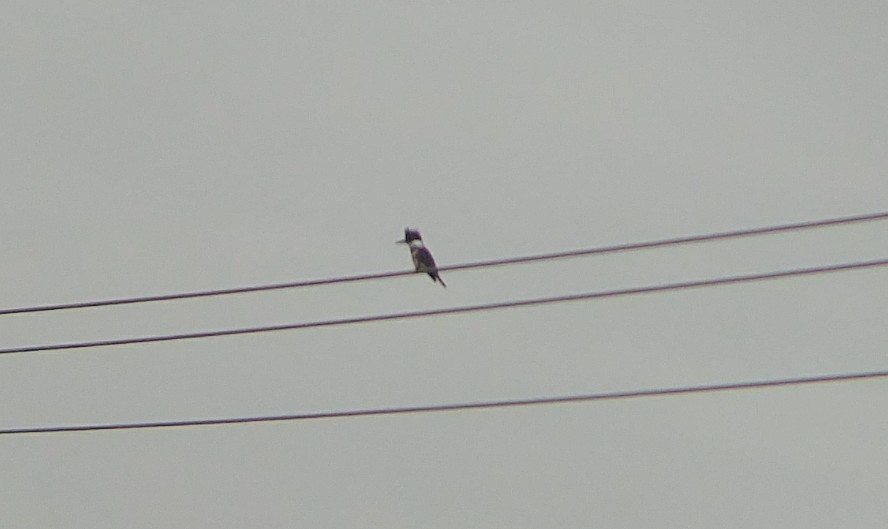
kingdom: Animalia
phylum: Chordata
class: Aves
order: Coraciiformes
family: Alcedinidae
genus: Megaceryle
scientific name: Megaceryle alcyon
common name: Belted kingfisher
